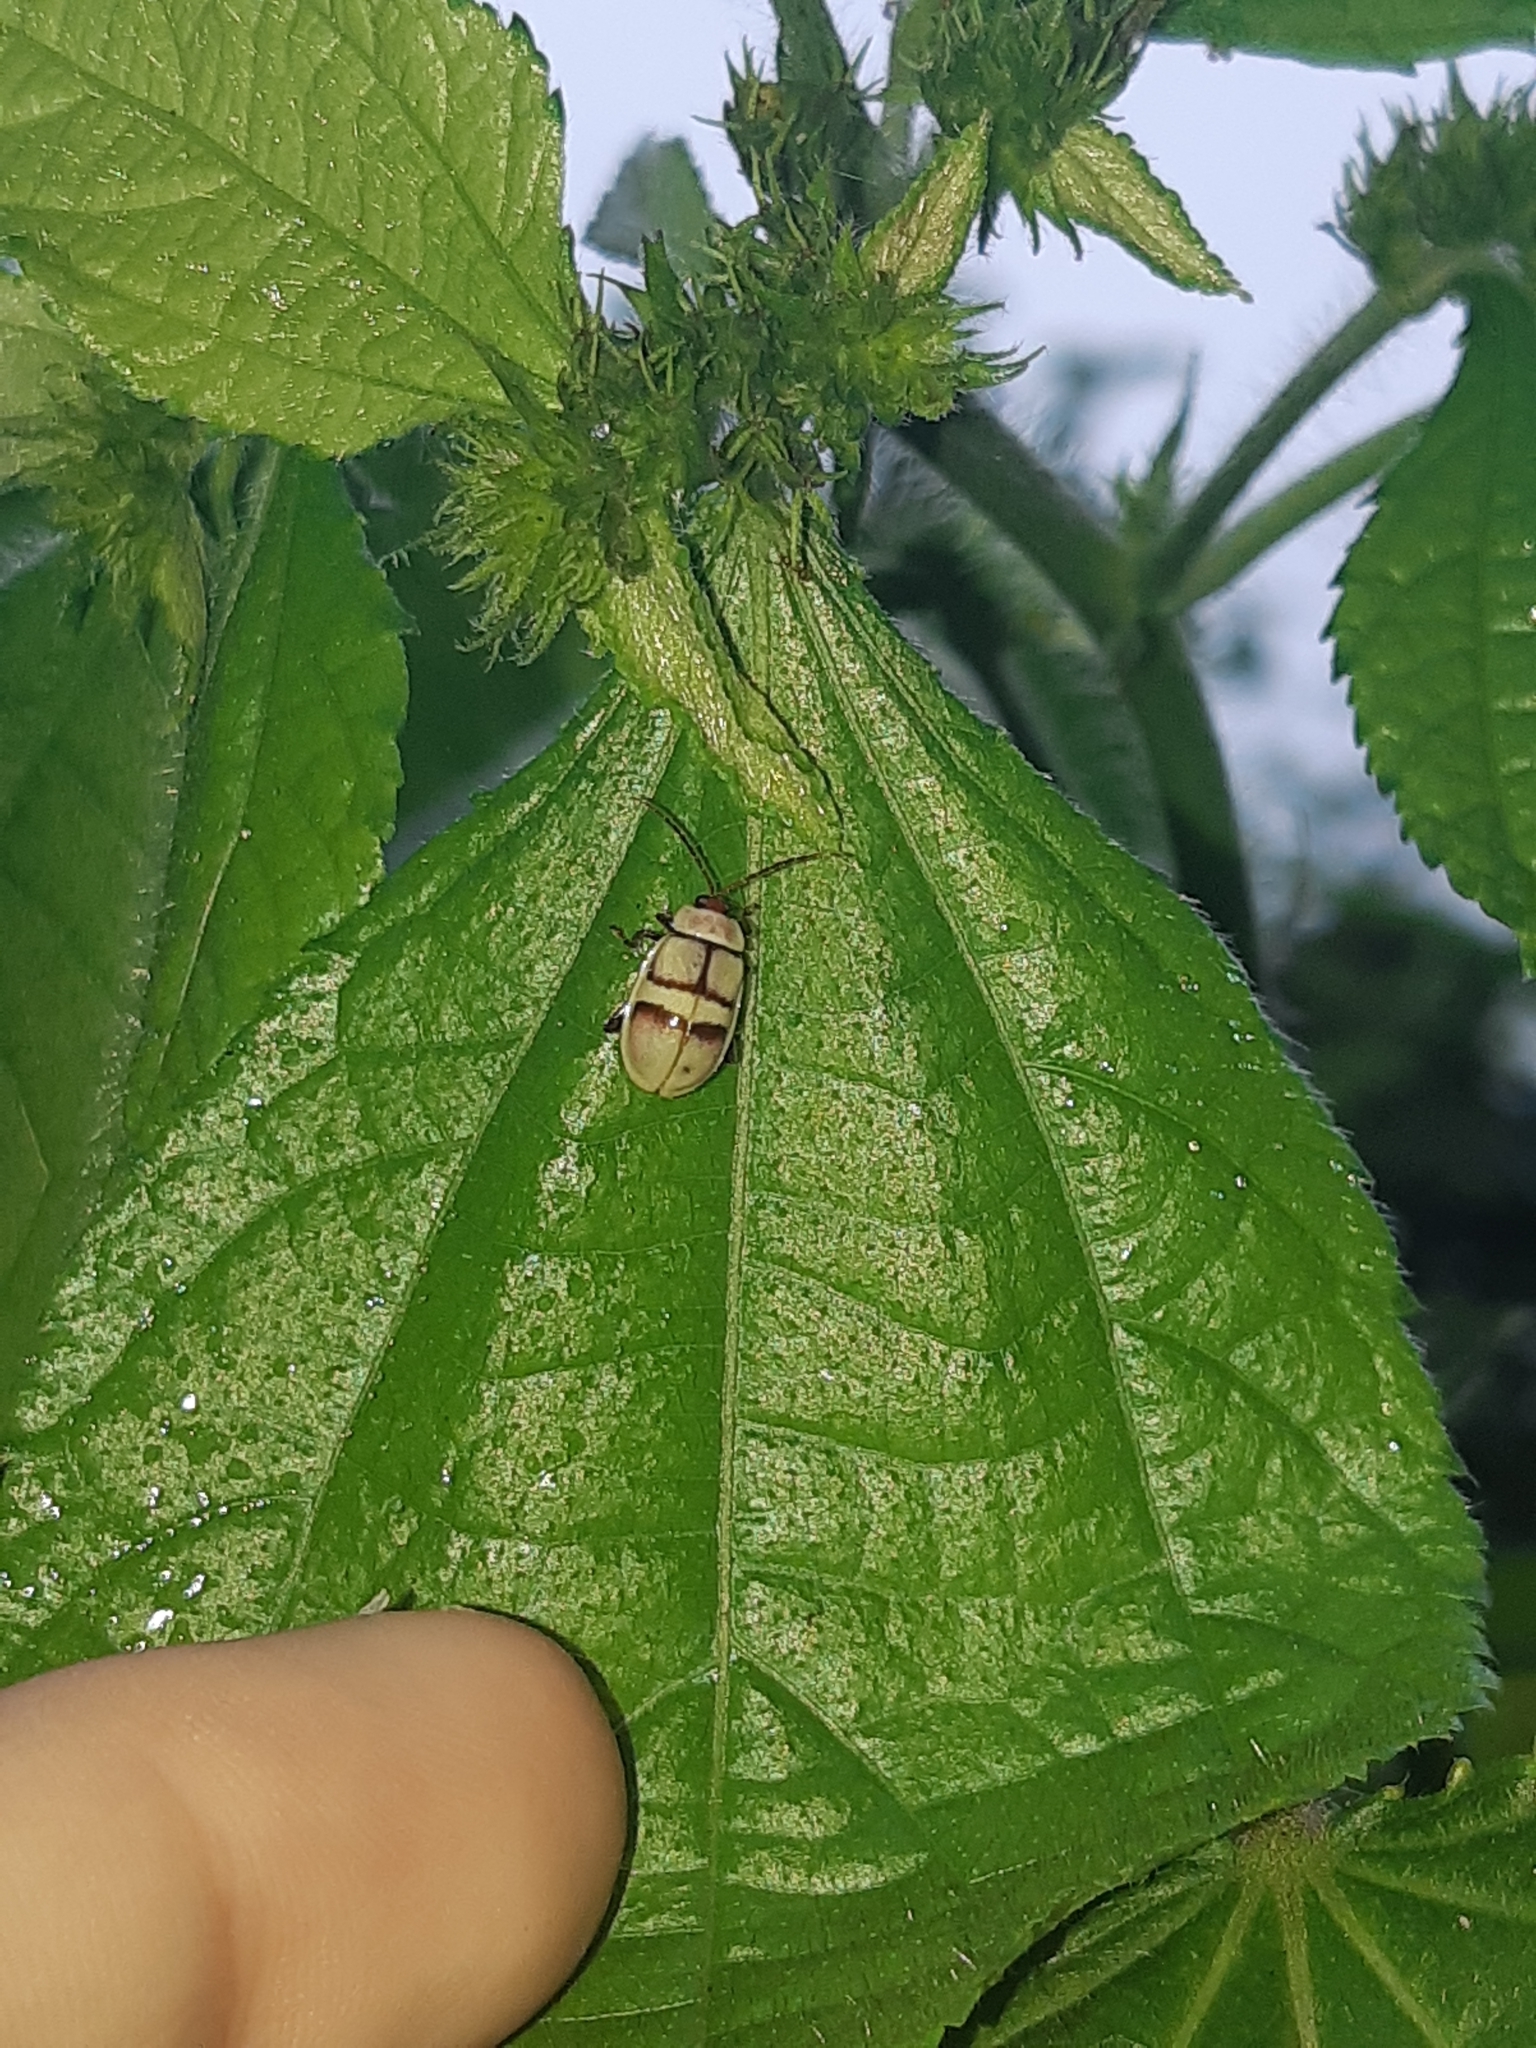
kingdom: Animalia
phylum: Arthropoda
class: Insecta
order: Coleoptera
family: Chrysomelidae
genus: Asphaera
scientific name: Asphaera nobilatata
